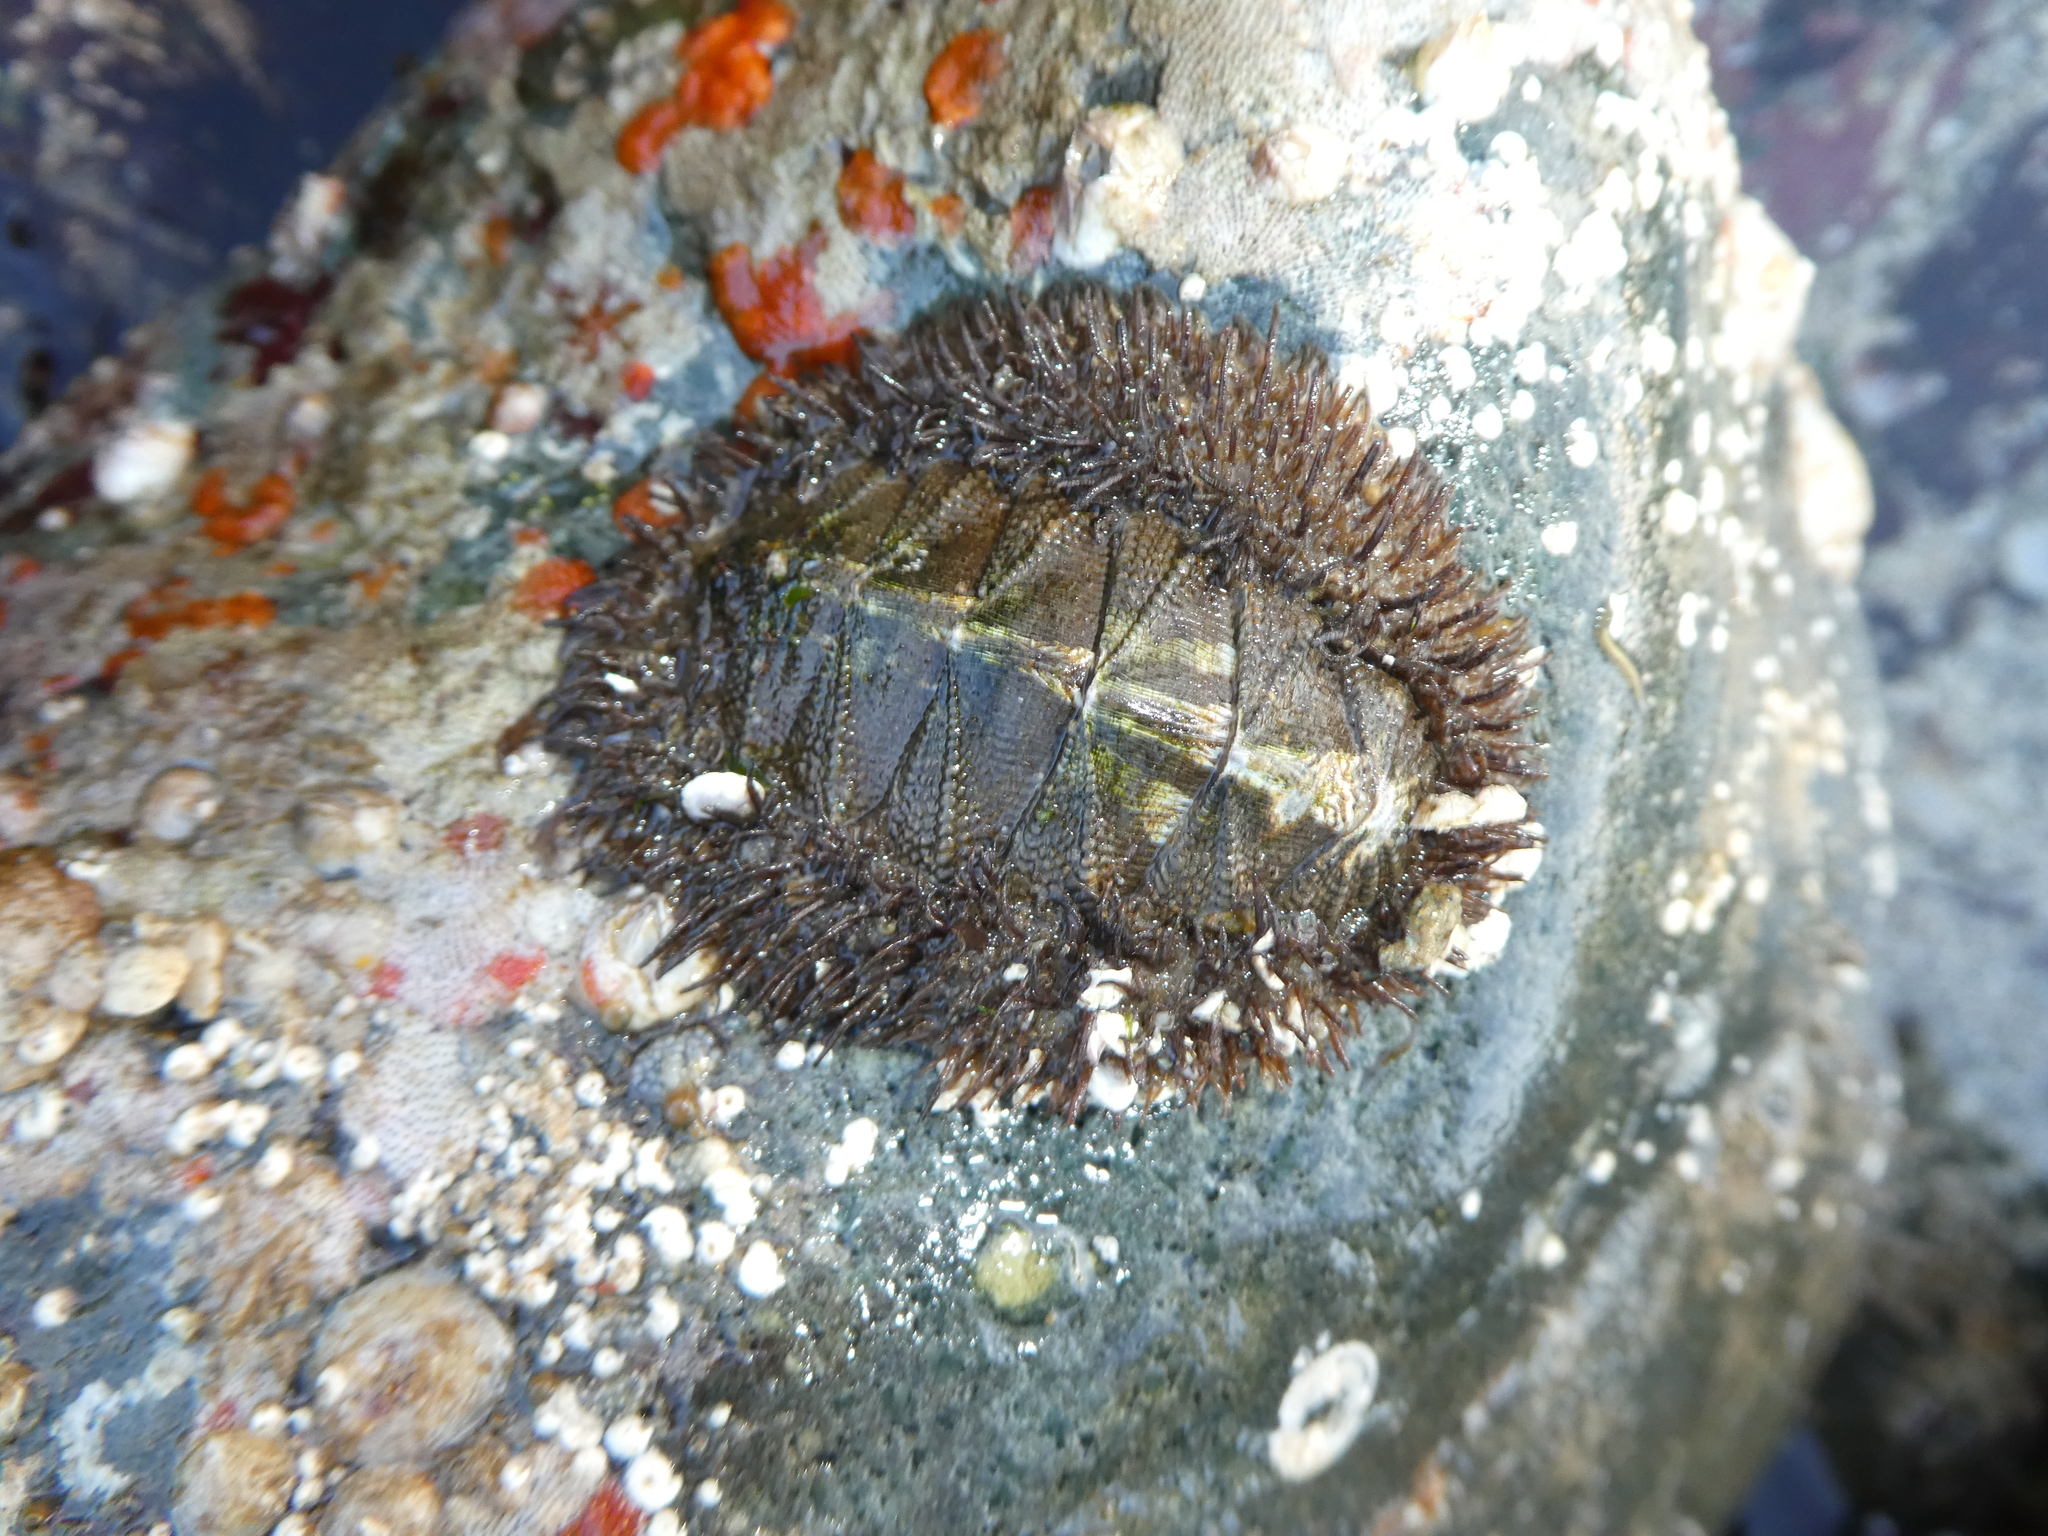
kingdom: Animalia
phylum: Mollusca
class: Polyplacophora
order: Chitonida
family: Mopaliidae
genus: Mopalia
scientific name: Mopalia muscosa
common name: Mossy chiton
